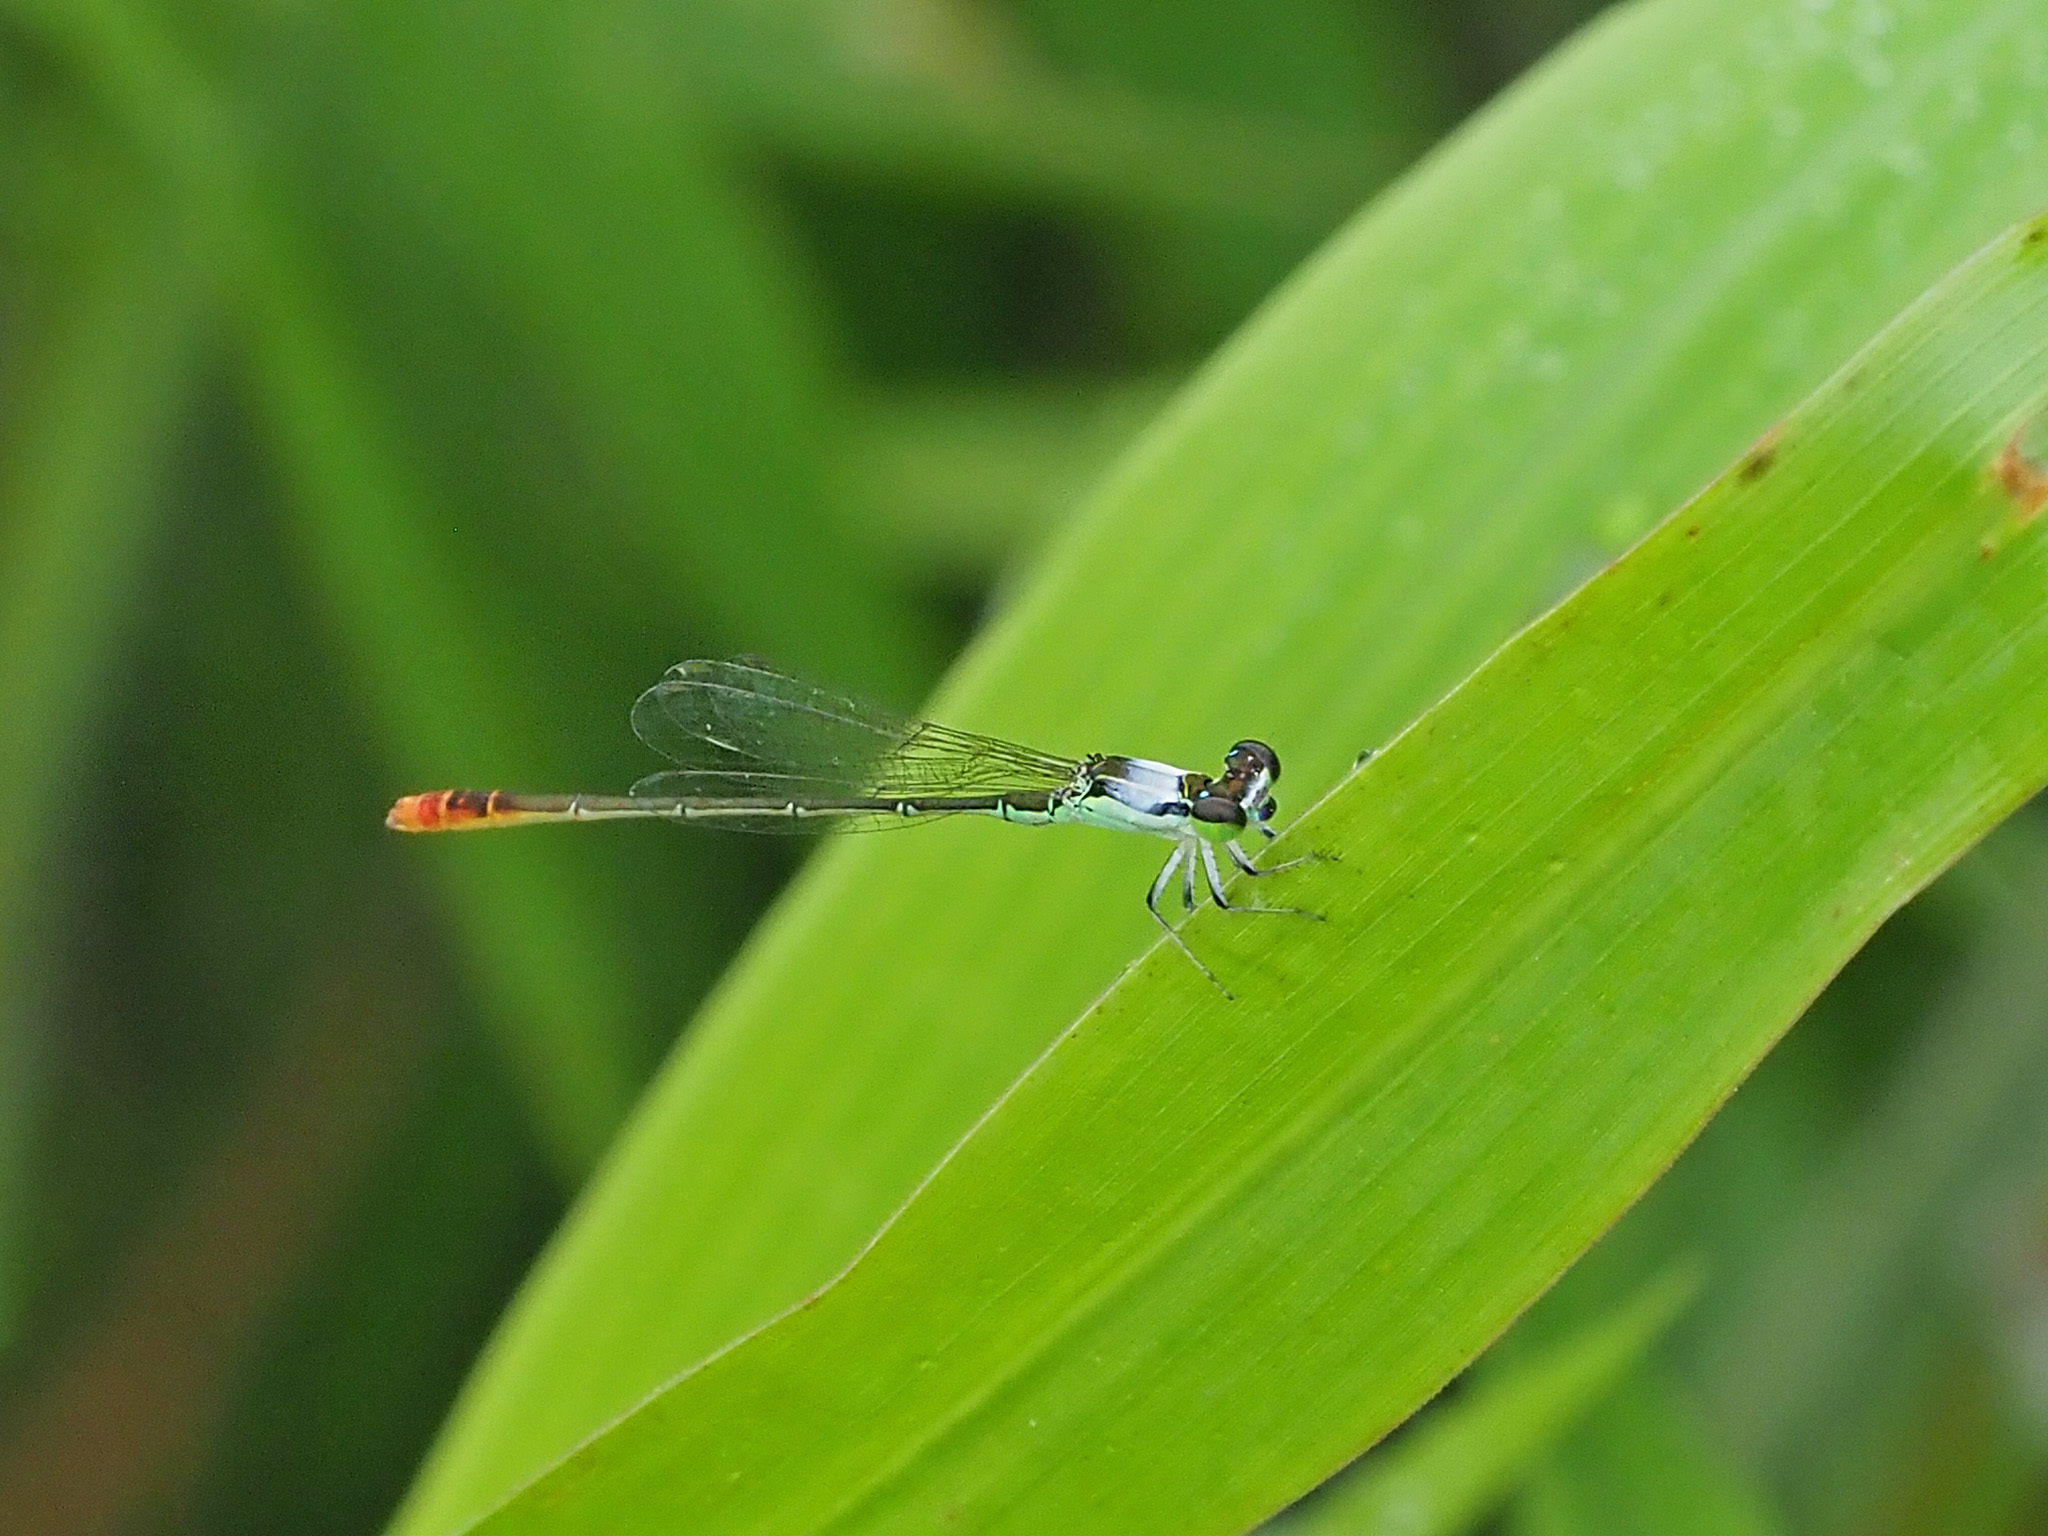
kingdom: Animalia
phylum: Arthropoda
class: Insecta
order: Odonata
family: Coenagrionidae
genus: Agriocnemis
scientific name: Agriocnemis femina
